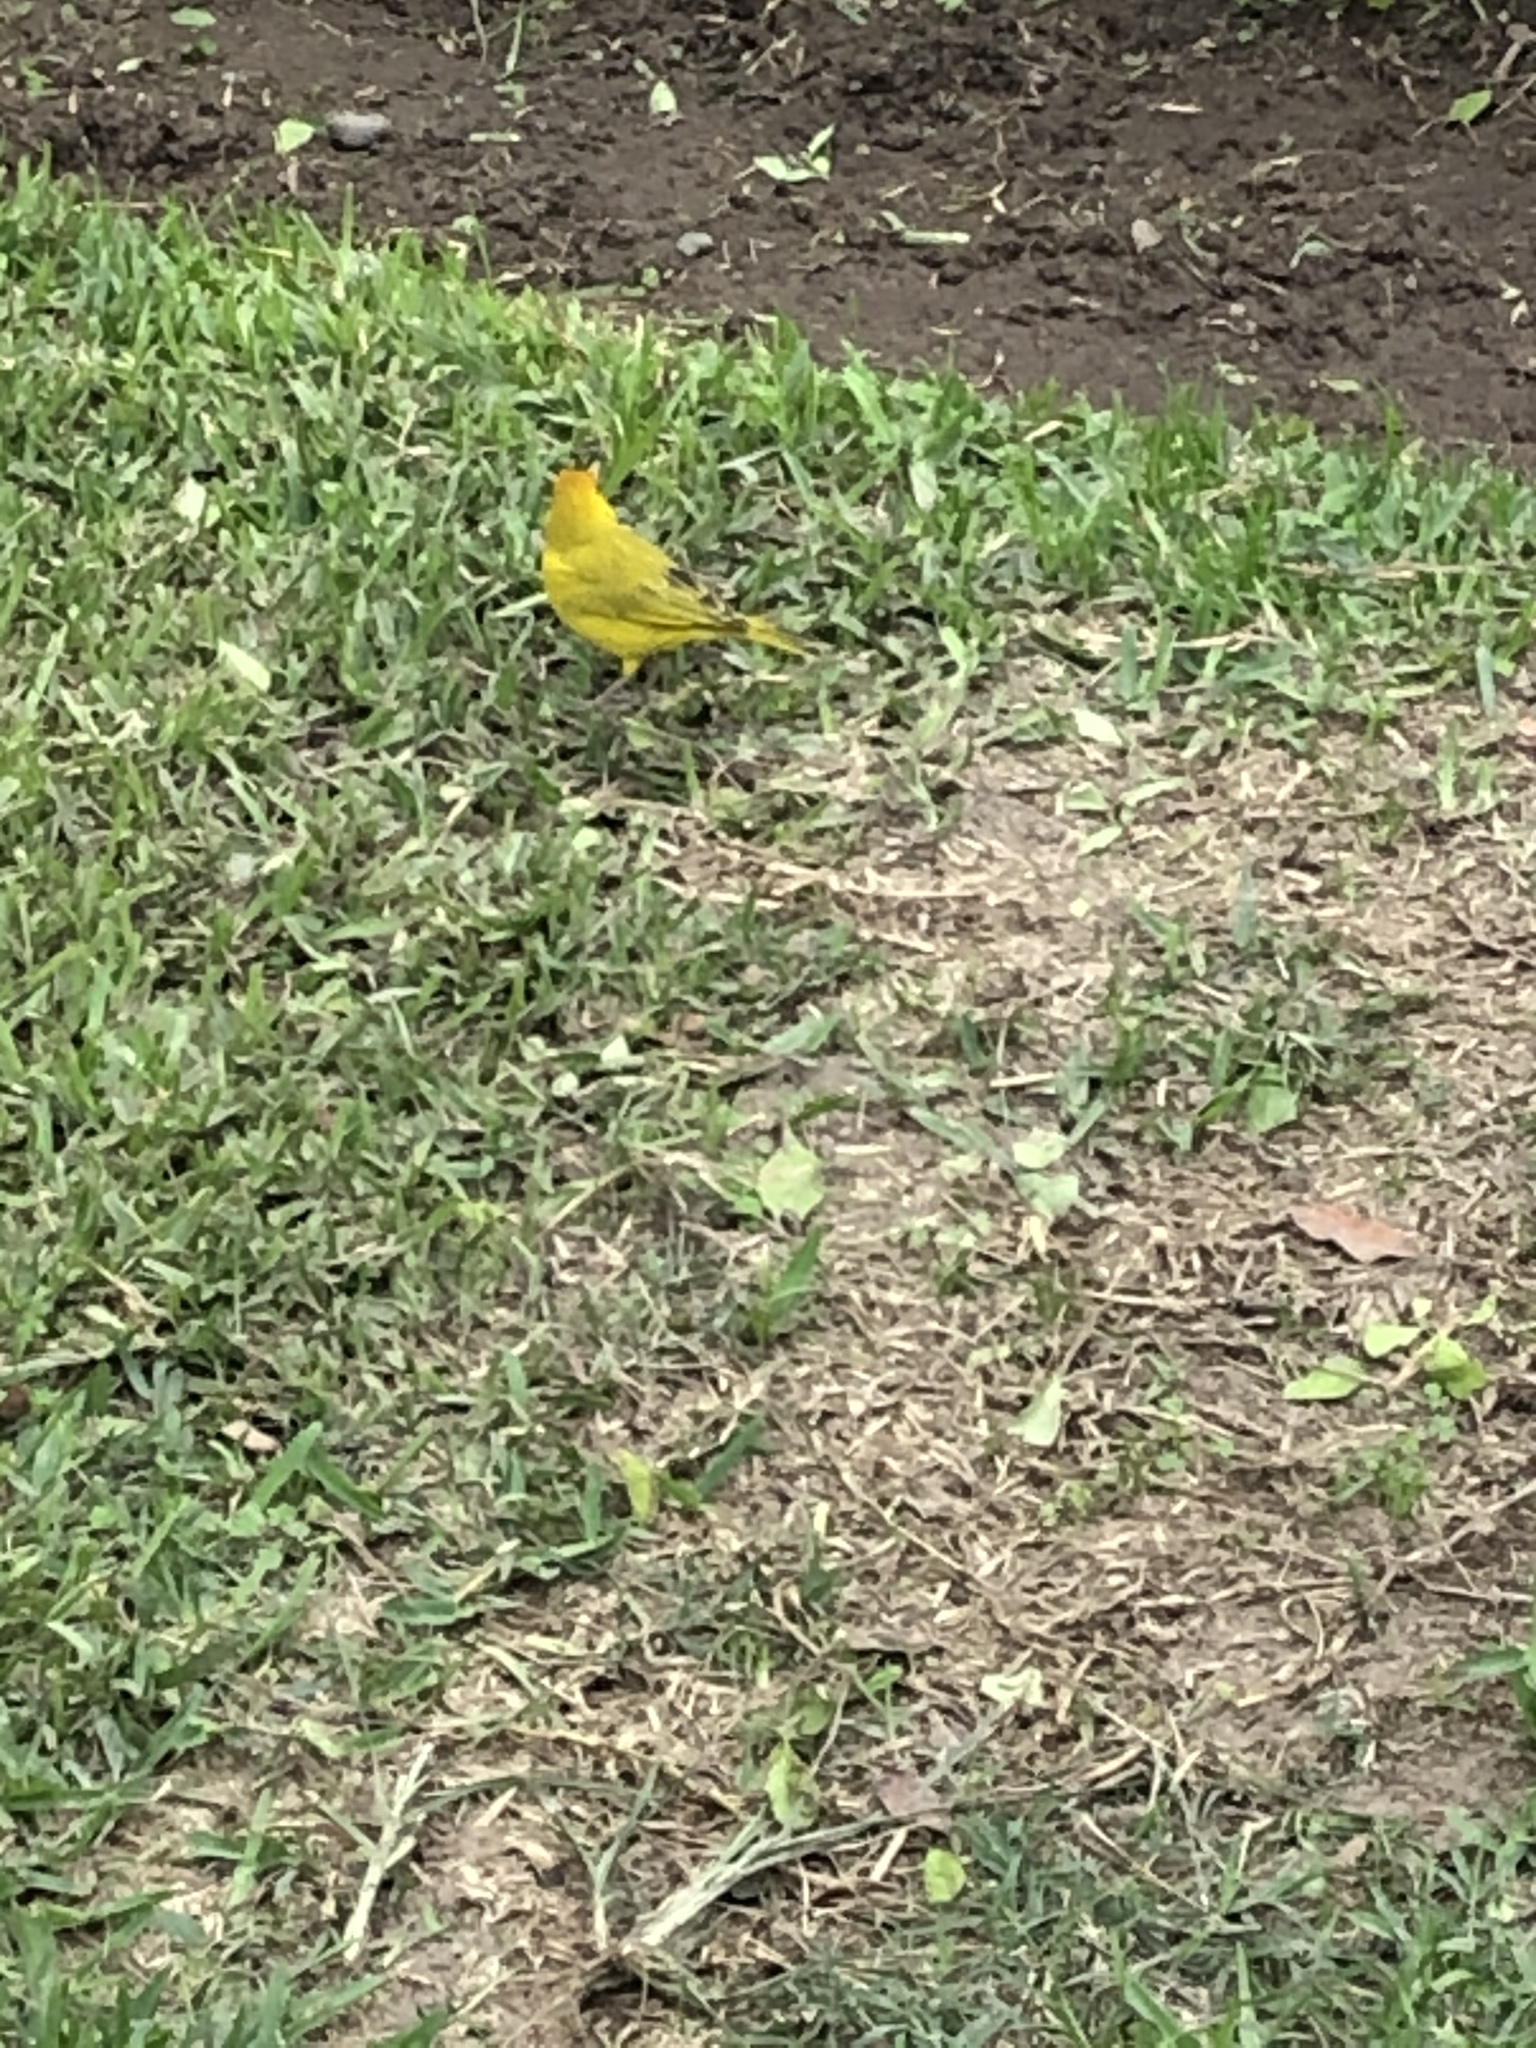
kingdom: Animalia
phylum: Chordata
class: Aves
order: Passeriformes
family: Thraupidae
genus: Sicalis
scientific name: Sicalis flaveola
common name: Saffron finch
